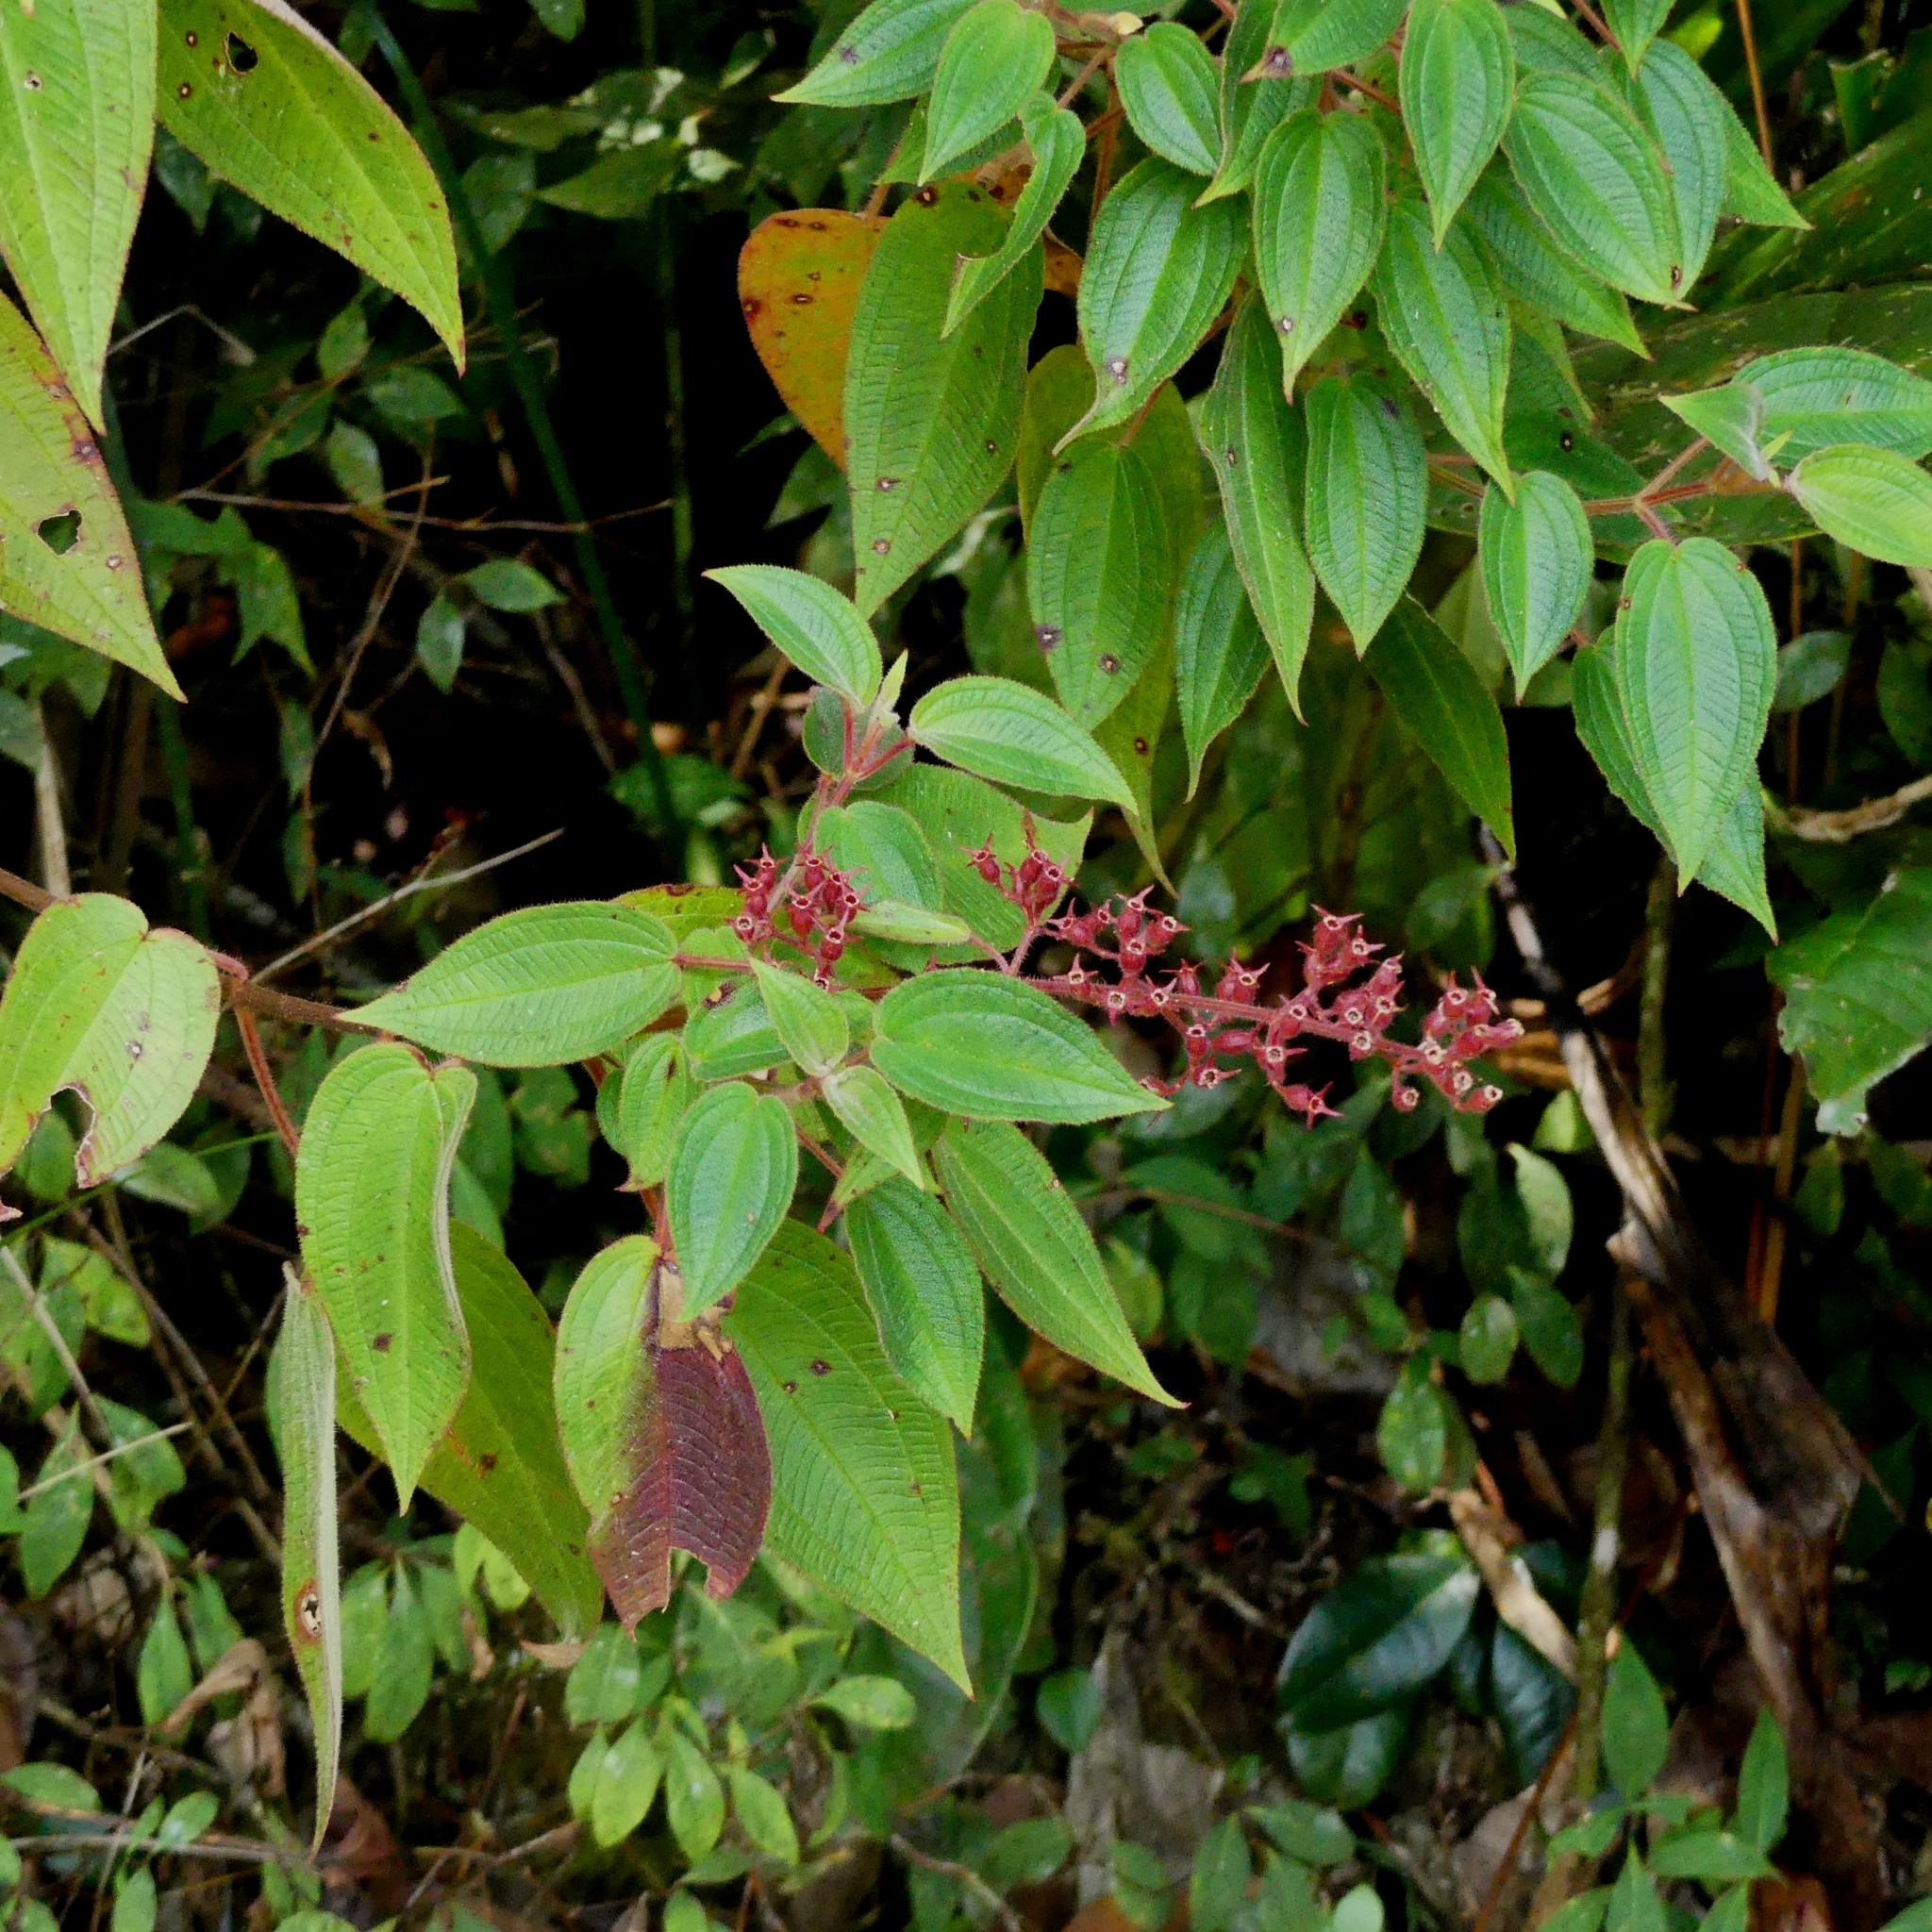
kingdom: Plantae
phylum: Tracheophyta
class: Magnoliopsida
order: Myrtales
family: Melastomataceae
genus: Ernestia
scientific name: Ernestia granvillei
